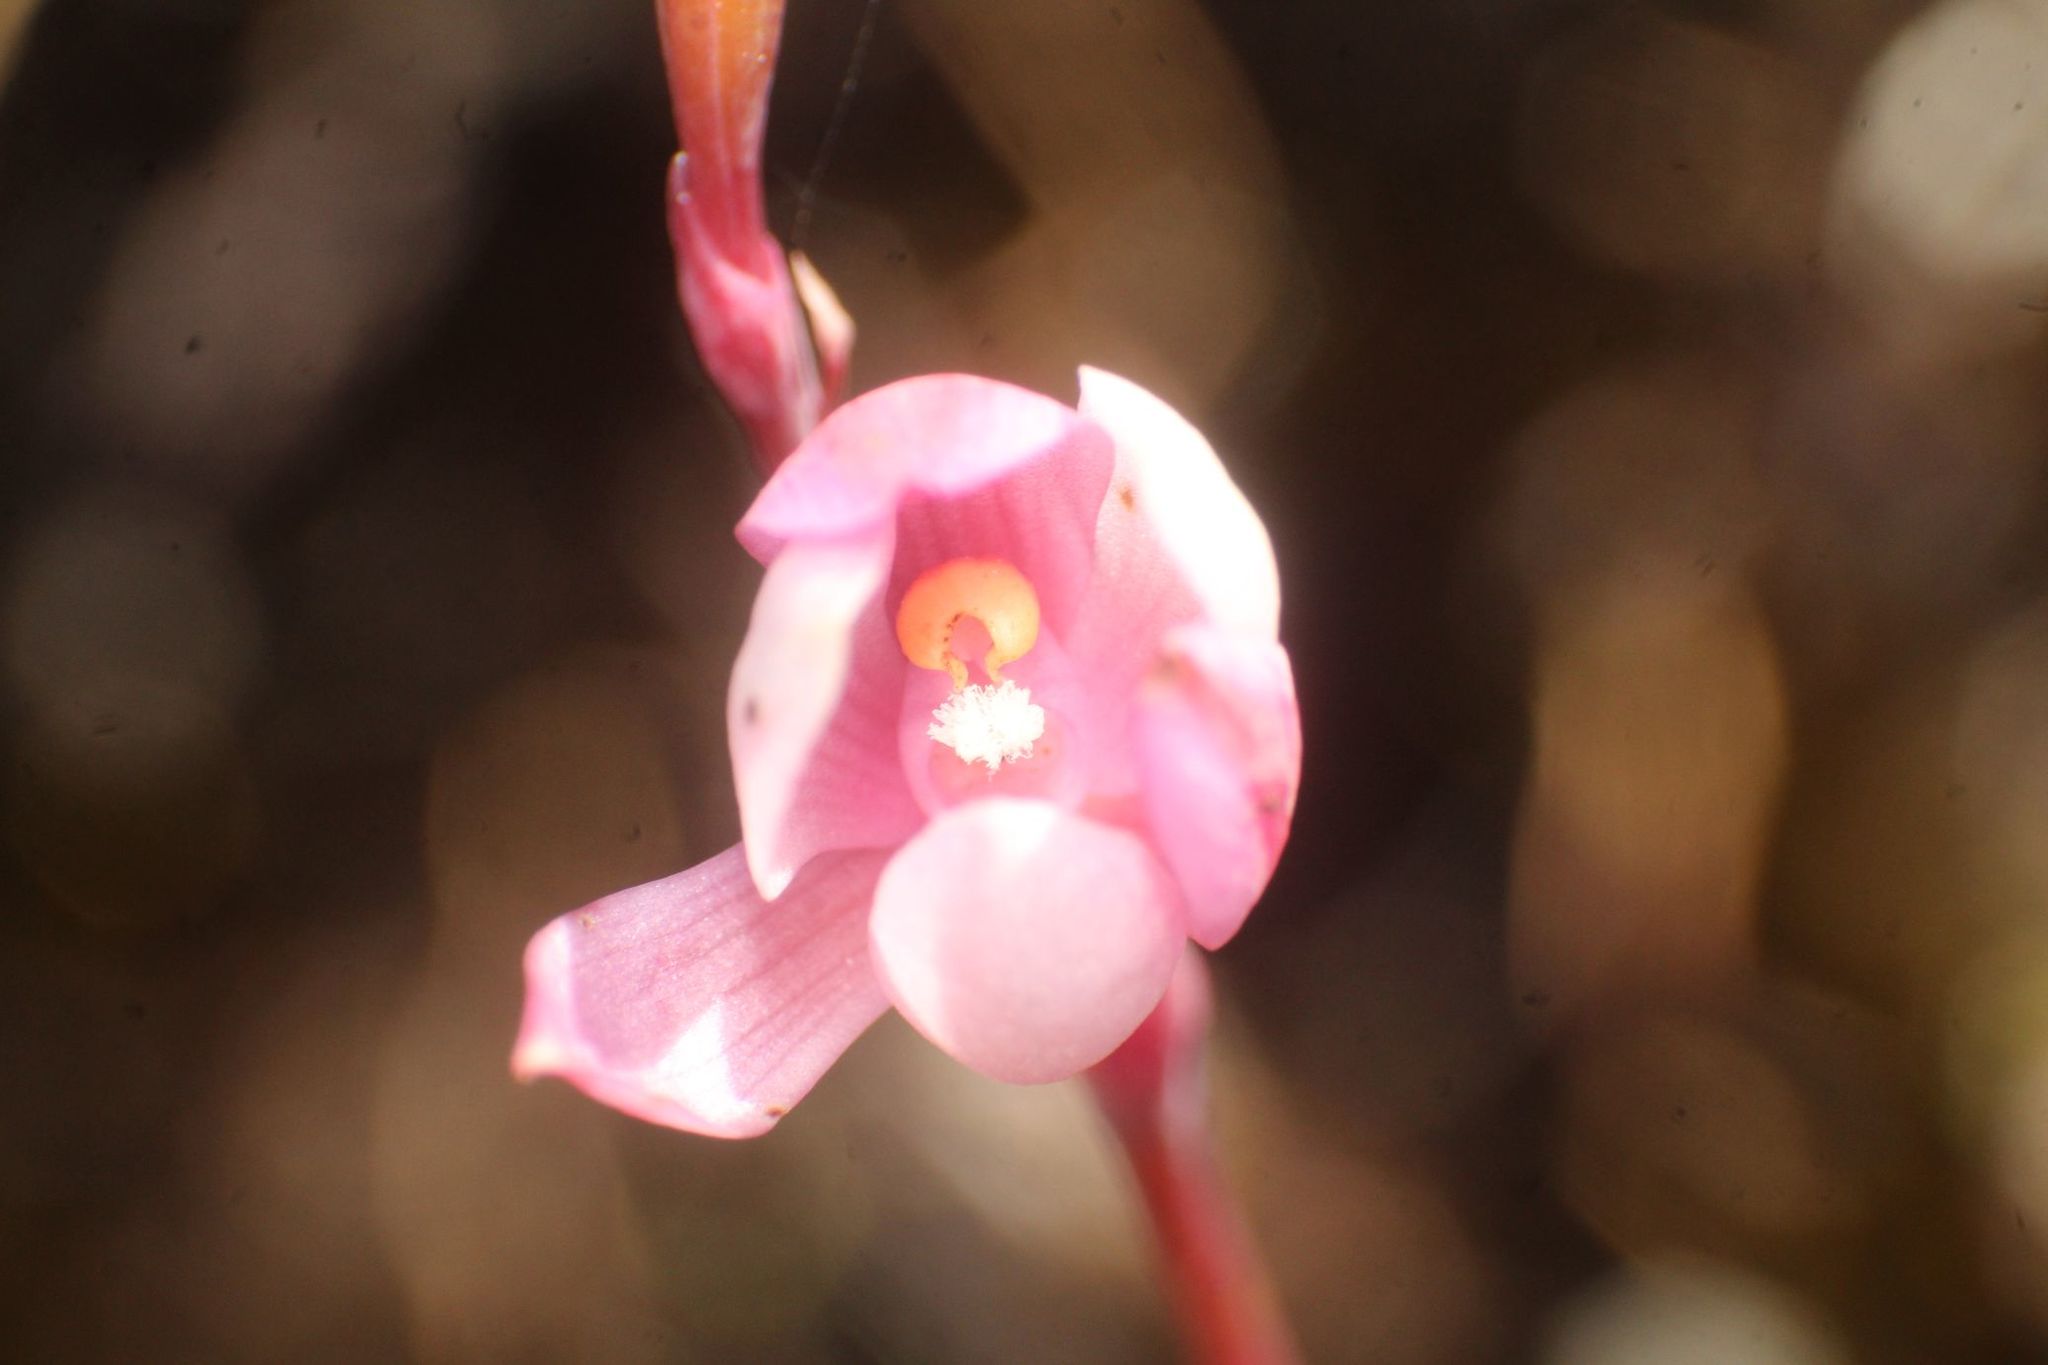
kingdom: Plantae
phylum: Tracheophyta
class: Liliopsida
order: Asparagales
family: Orchidaceae
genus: Thelymitra
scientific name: Thelymitra graminea
